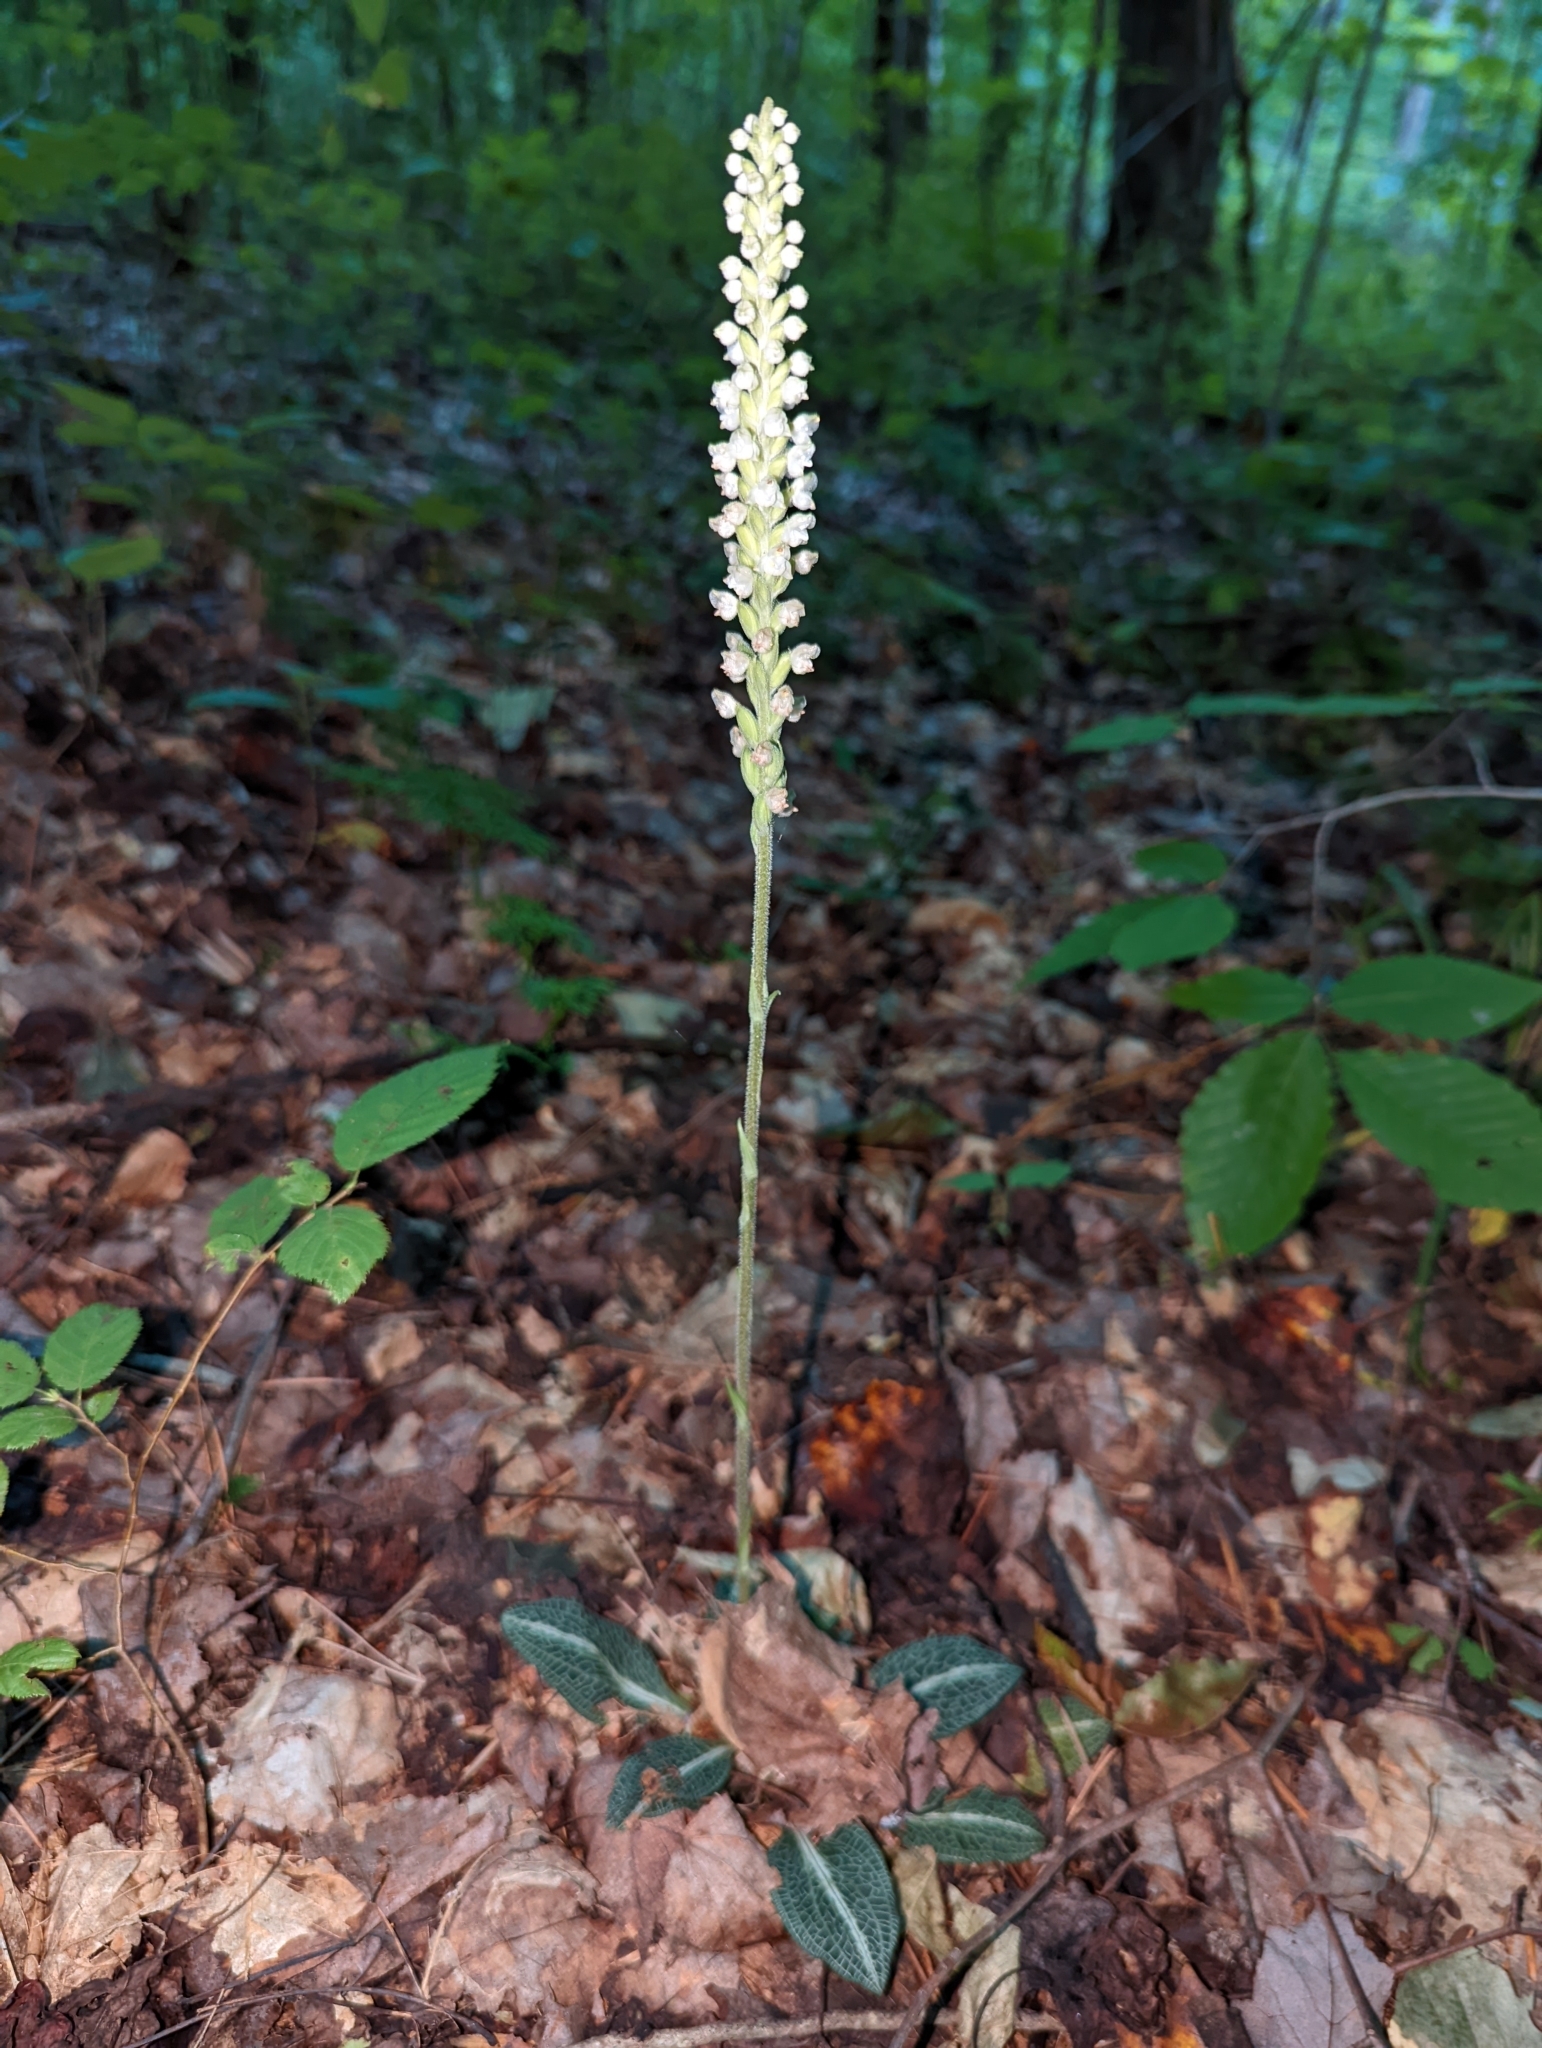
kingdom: Plantae
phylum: Tracheophyta
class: Liliopsida
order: Asparagales
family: Orchidaceae
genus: Goodyera
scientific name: Goodyera pubescens
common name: Downy rattlesnake-plantain
